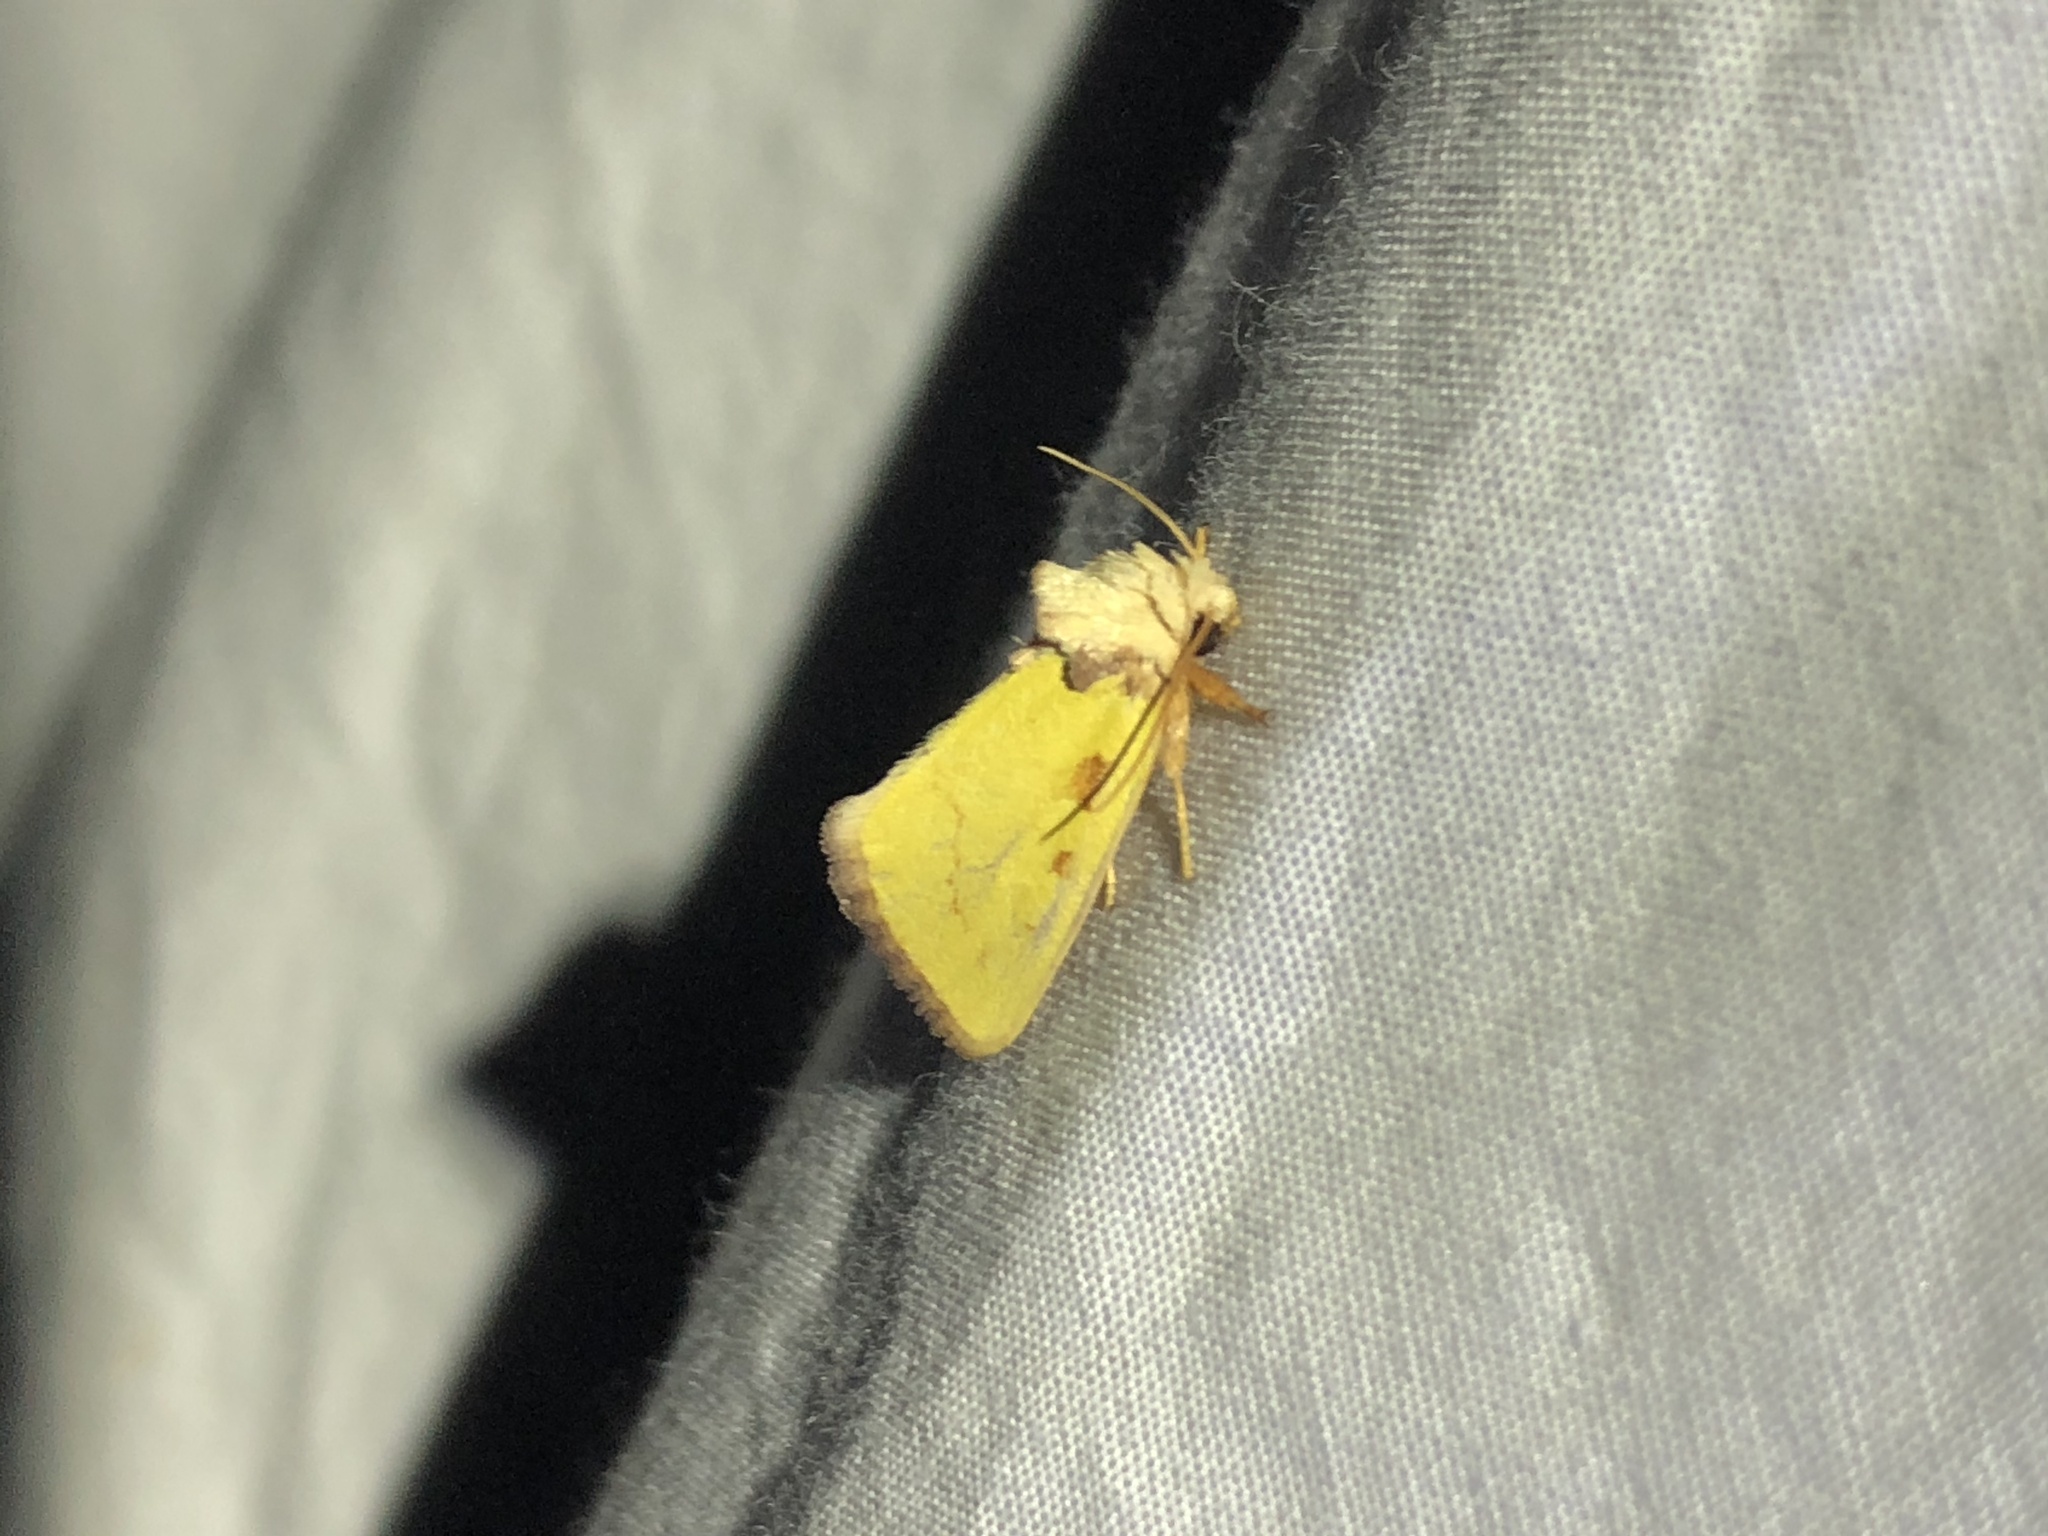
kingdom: Animalia
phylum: Arthropoda
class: Insecta
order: Lepidoptera
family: Noctuidae
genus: Nocloa
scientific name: Nocloa aliaga
